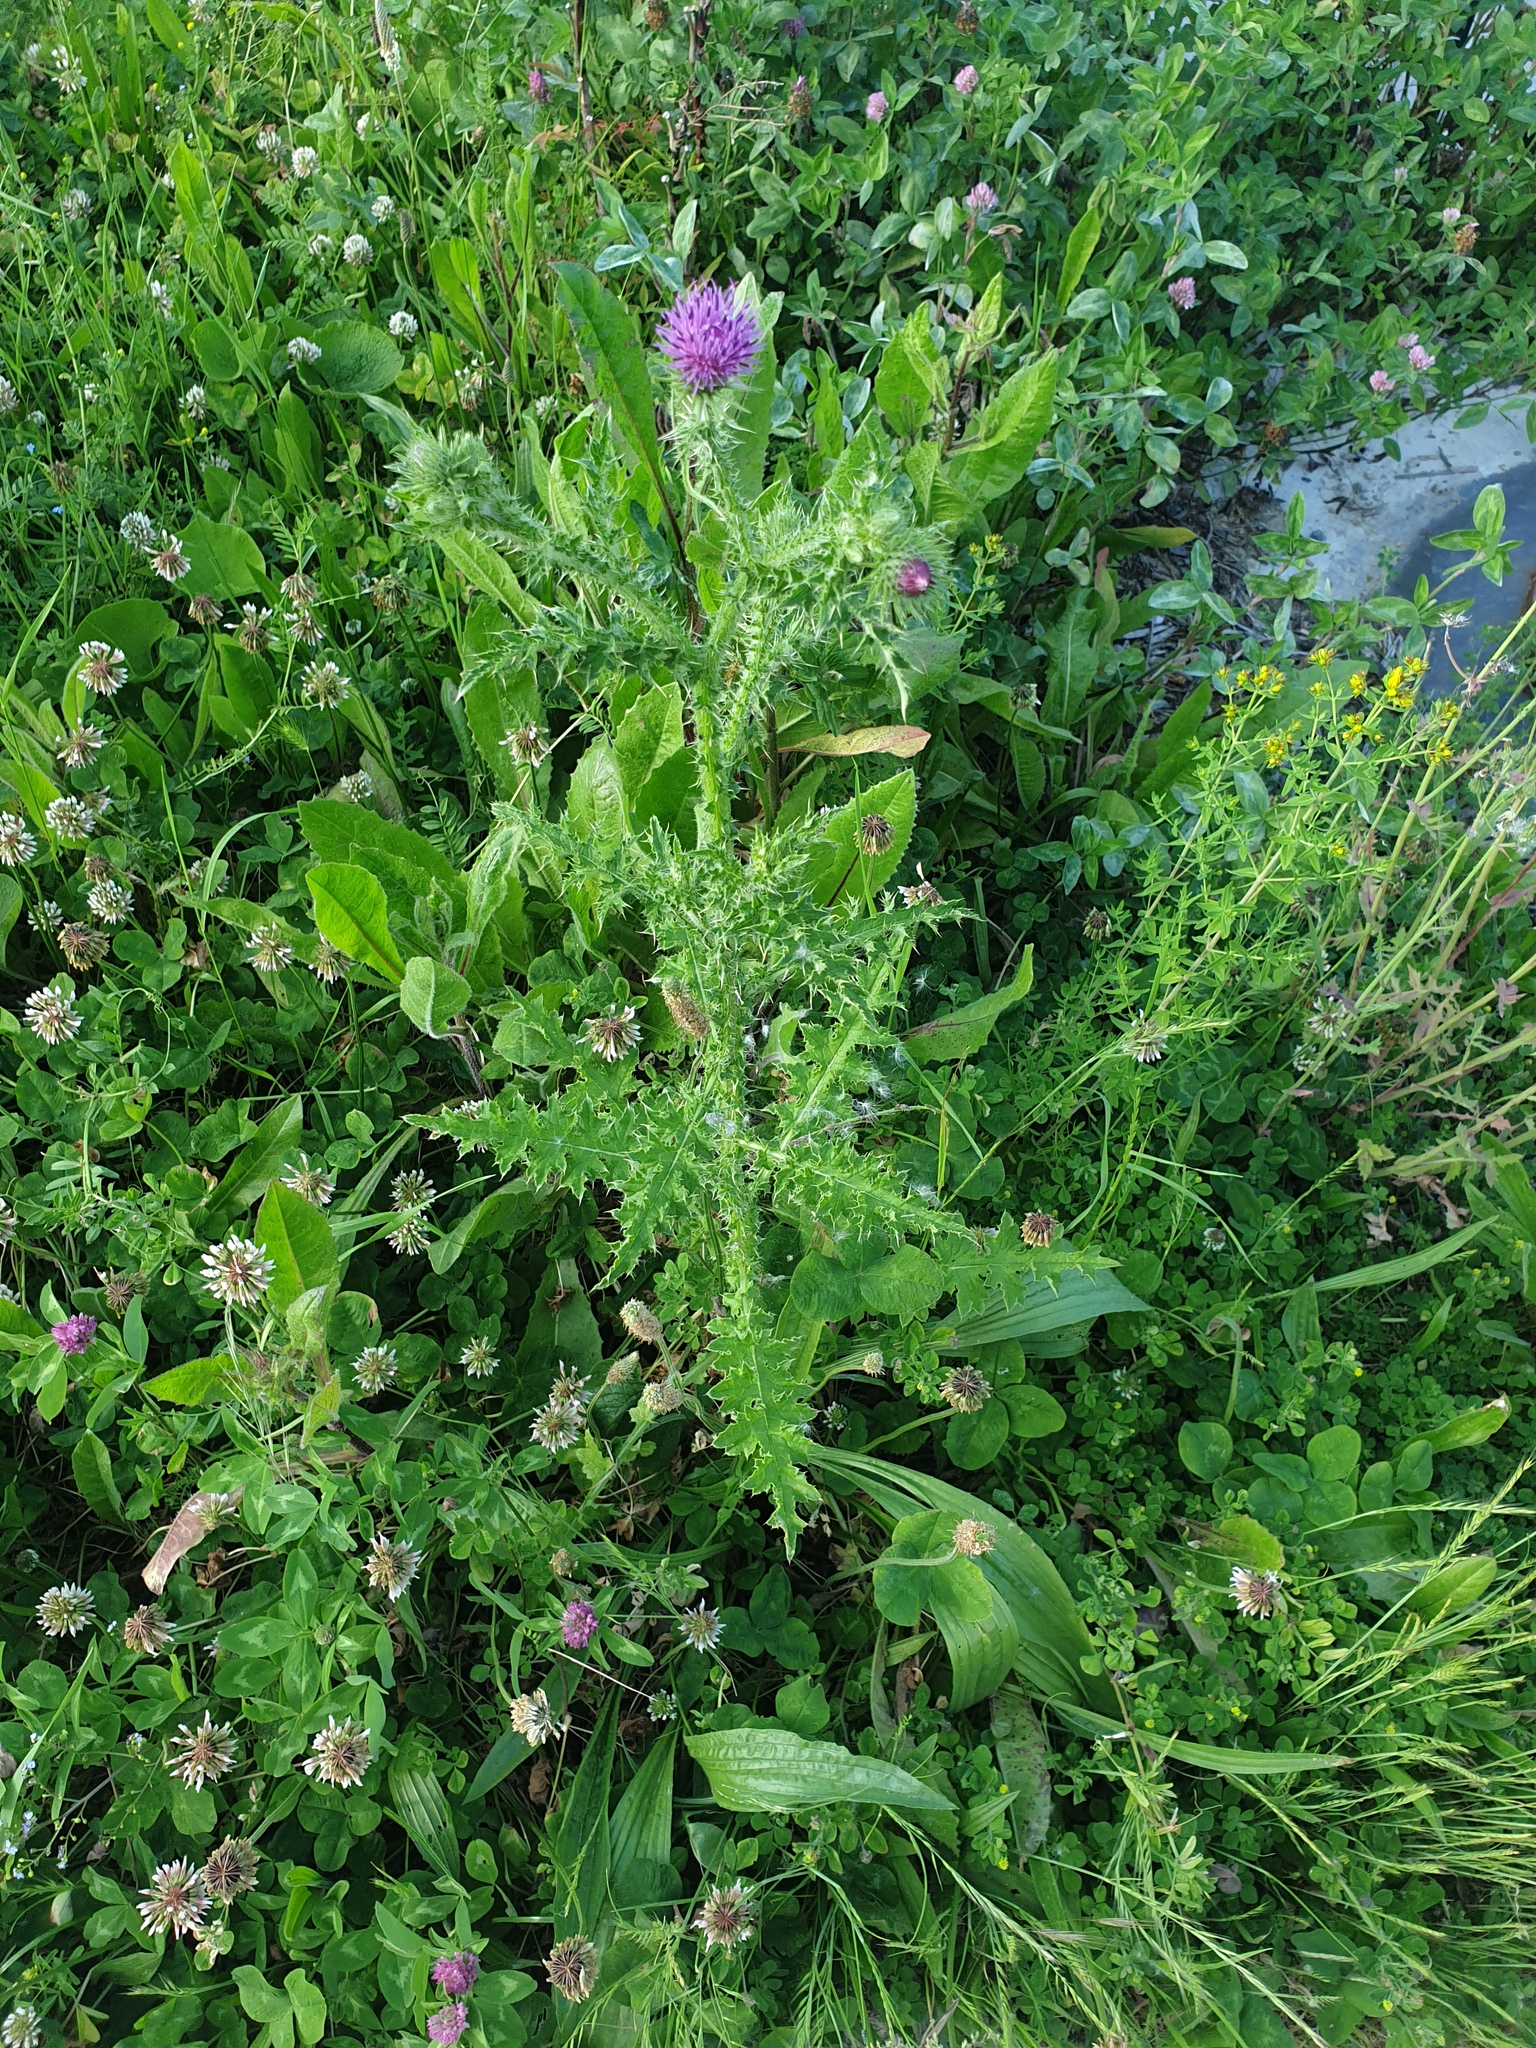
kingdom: Plantae
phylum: Tracheophyta
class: Magnoliopsida
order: Asterales
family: Asteraceae
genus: Carduus
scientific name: Carduus crispus
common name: Welted thistle
